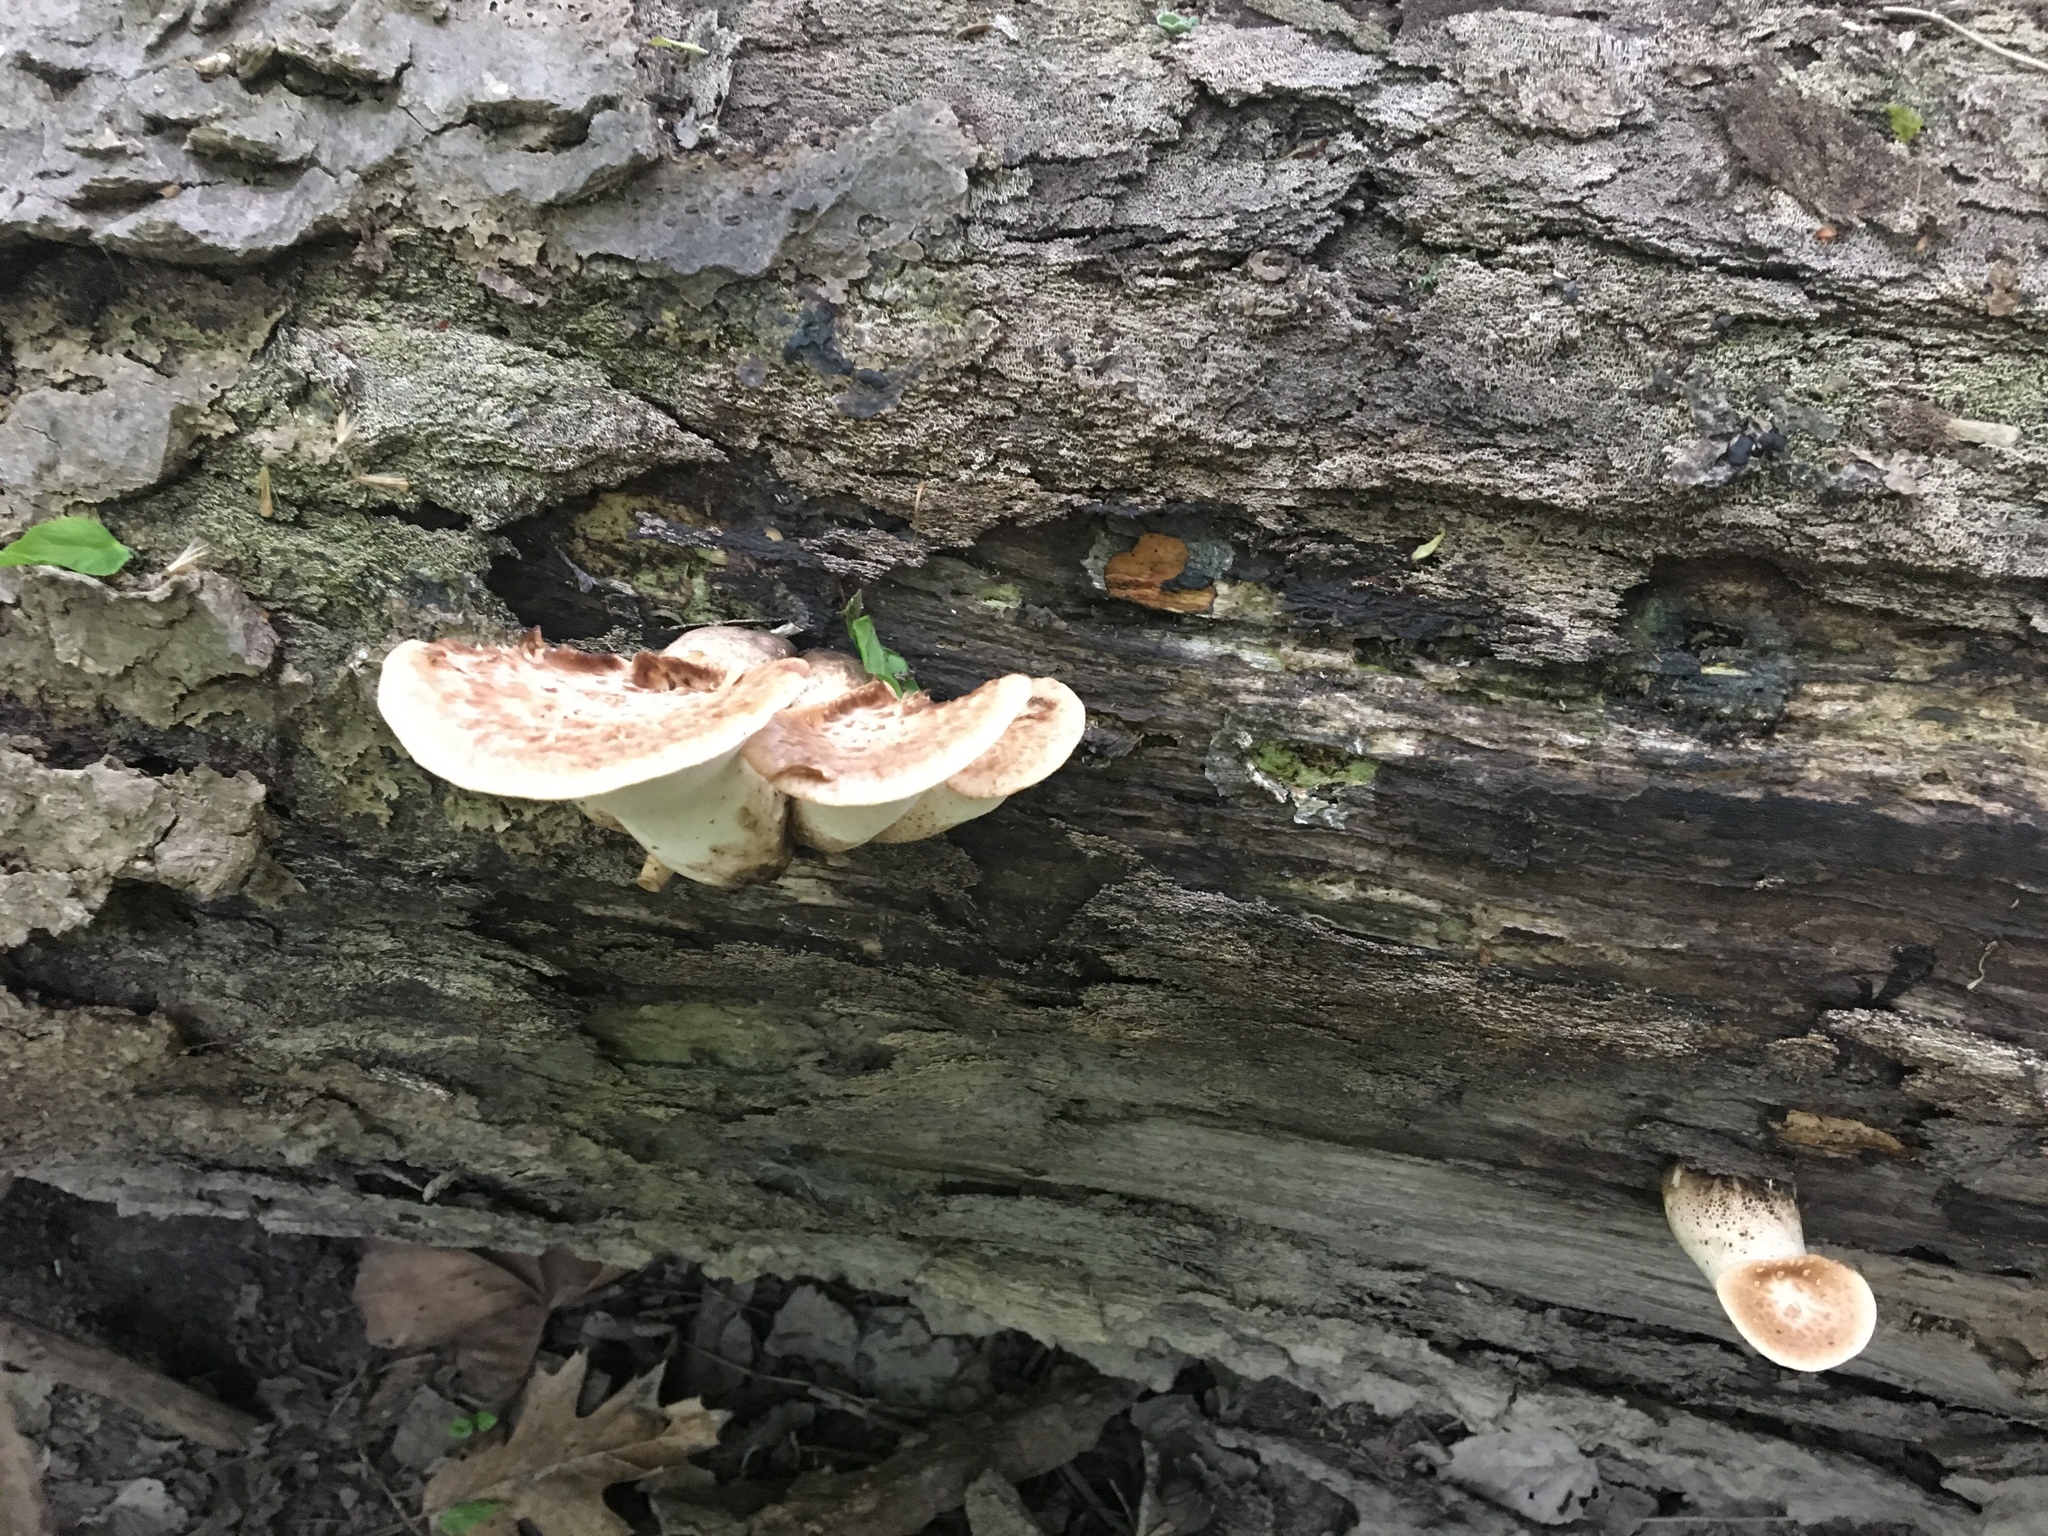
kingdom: Fungi
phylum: Basidiomycota
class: Agaricomycetes
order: Polyporales
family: Polyporaceae
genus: Cerioporus
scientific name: Cerioporus squamosus
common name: Dryad's saddle
